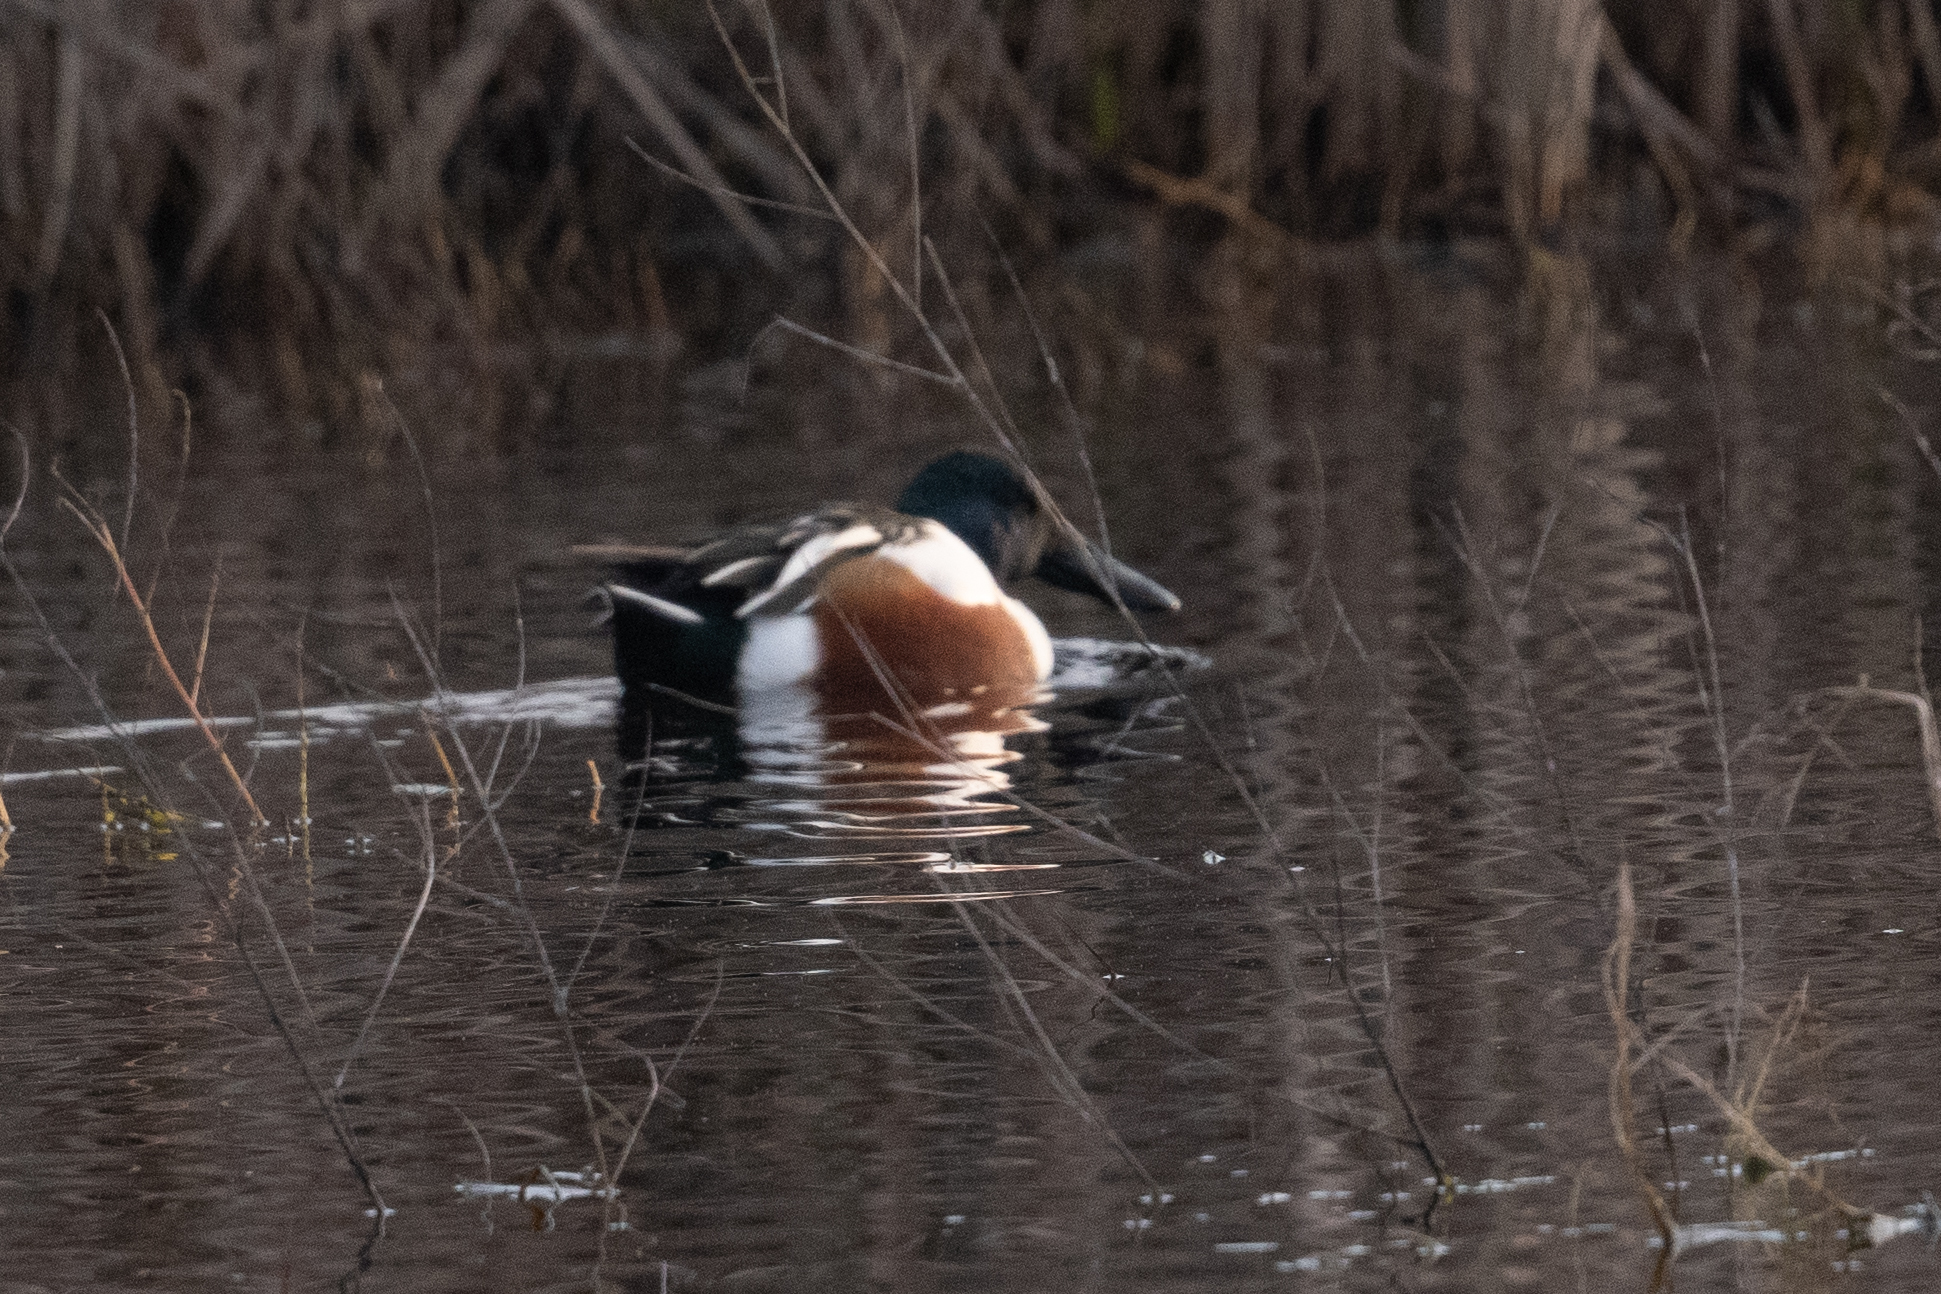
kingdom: Animalia
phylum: Chordata
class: Aves
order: Anseriformes
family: Anatidae
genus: Spatula
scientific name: Spatula clypeata
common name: Northern shoveler
